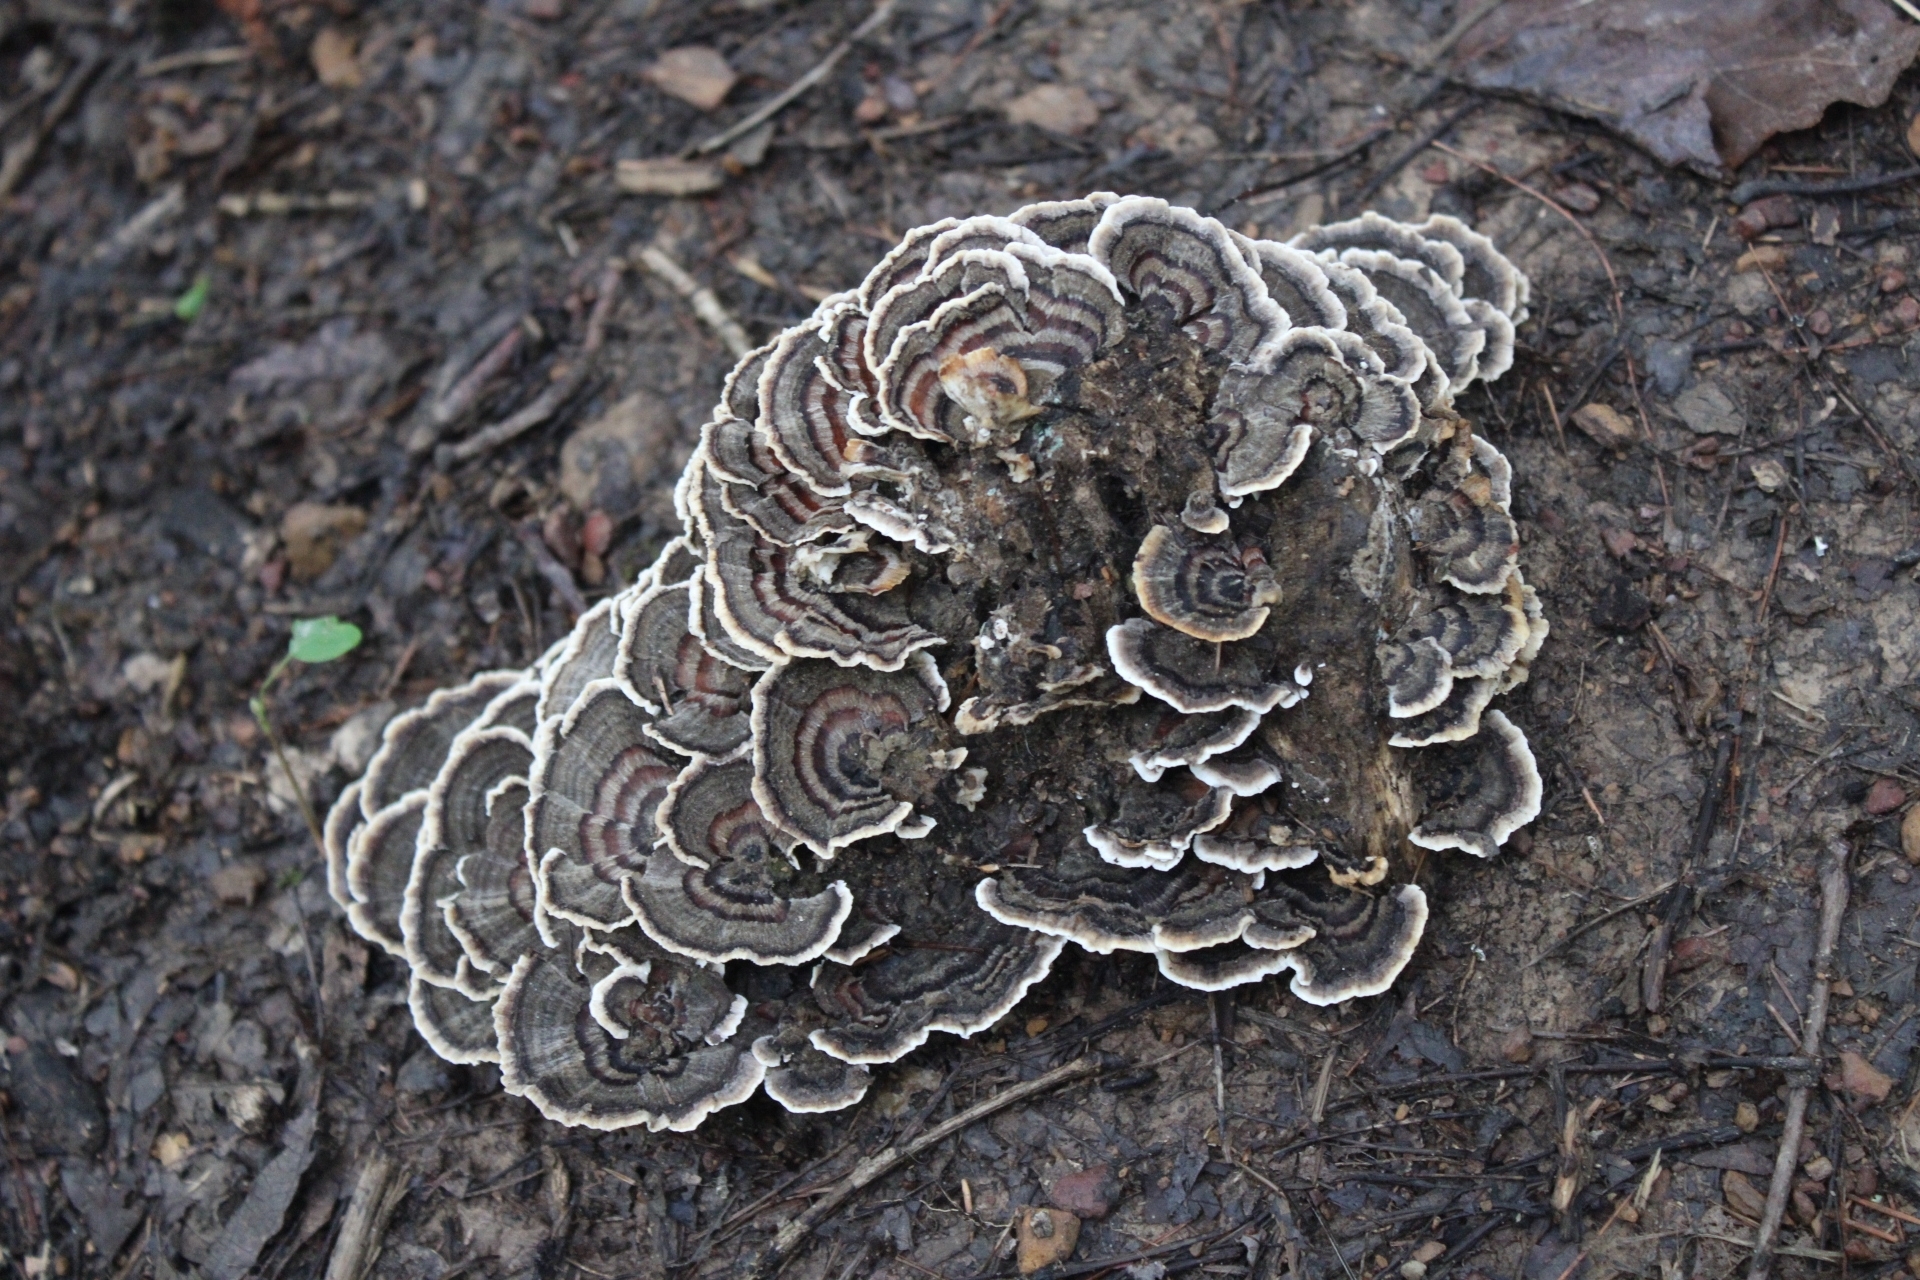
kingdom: Fungi
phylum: Basidiomycota
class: Agaricomycetes
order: Polyporales
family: Polyporaceae
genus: Trametes
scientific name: Trametes versicolor
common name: Turkeytail
